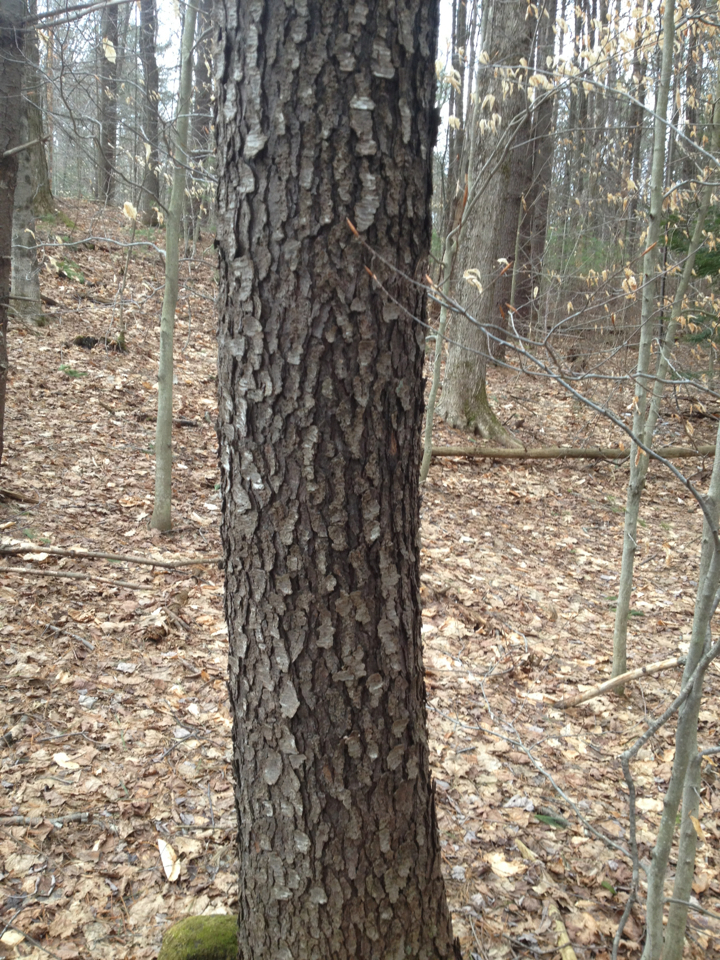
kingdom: Plantae
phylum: Tracheophyta
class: Magnoliopsida
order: Rosales
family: Rosaceae
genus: Prunus
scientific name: Prunus serotina
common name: Black cherry
